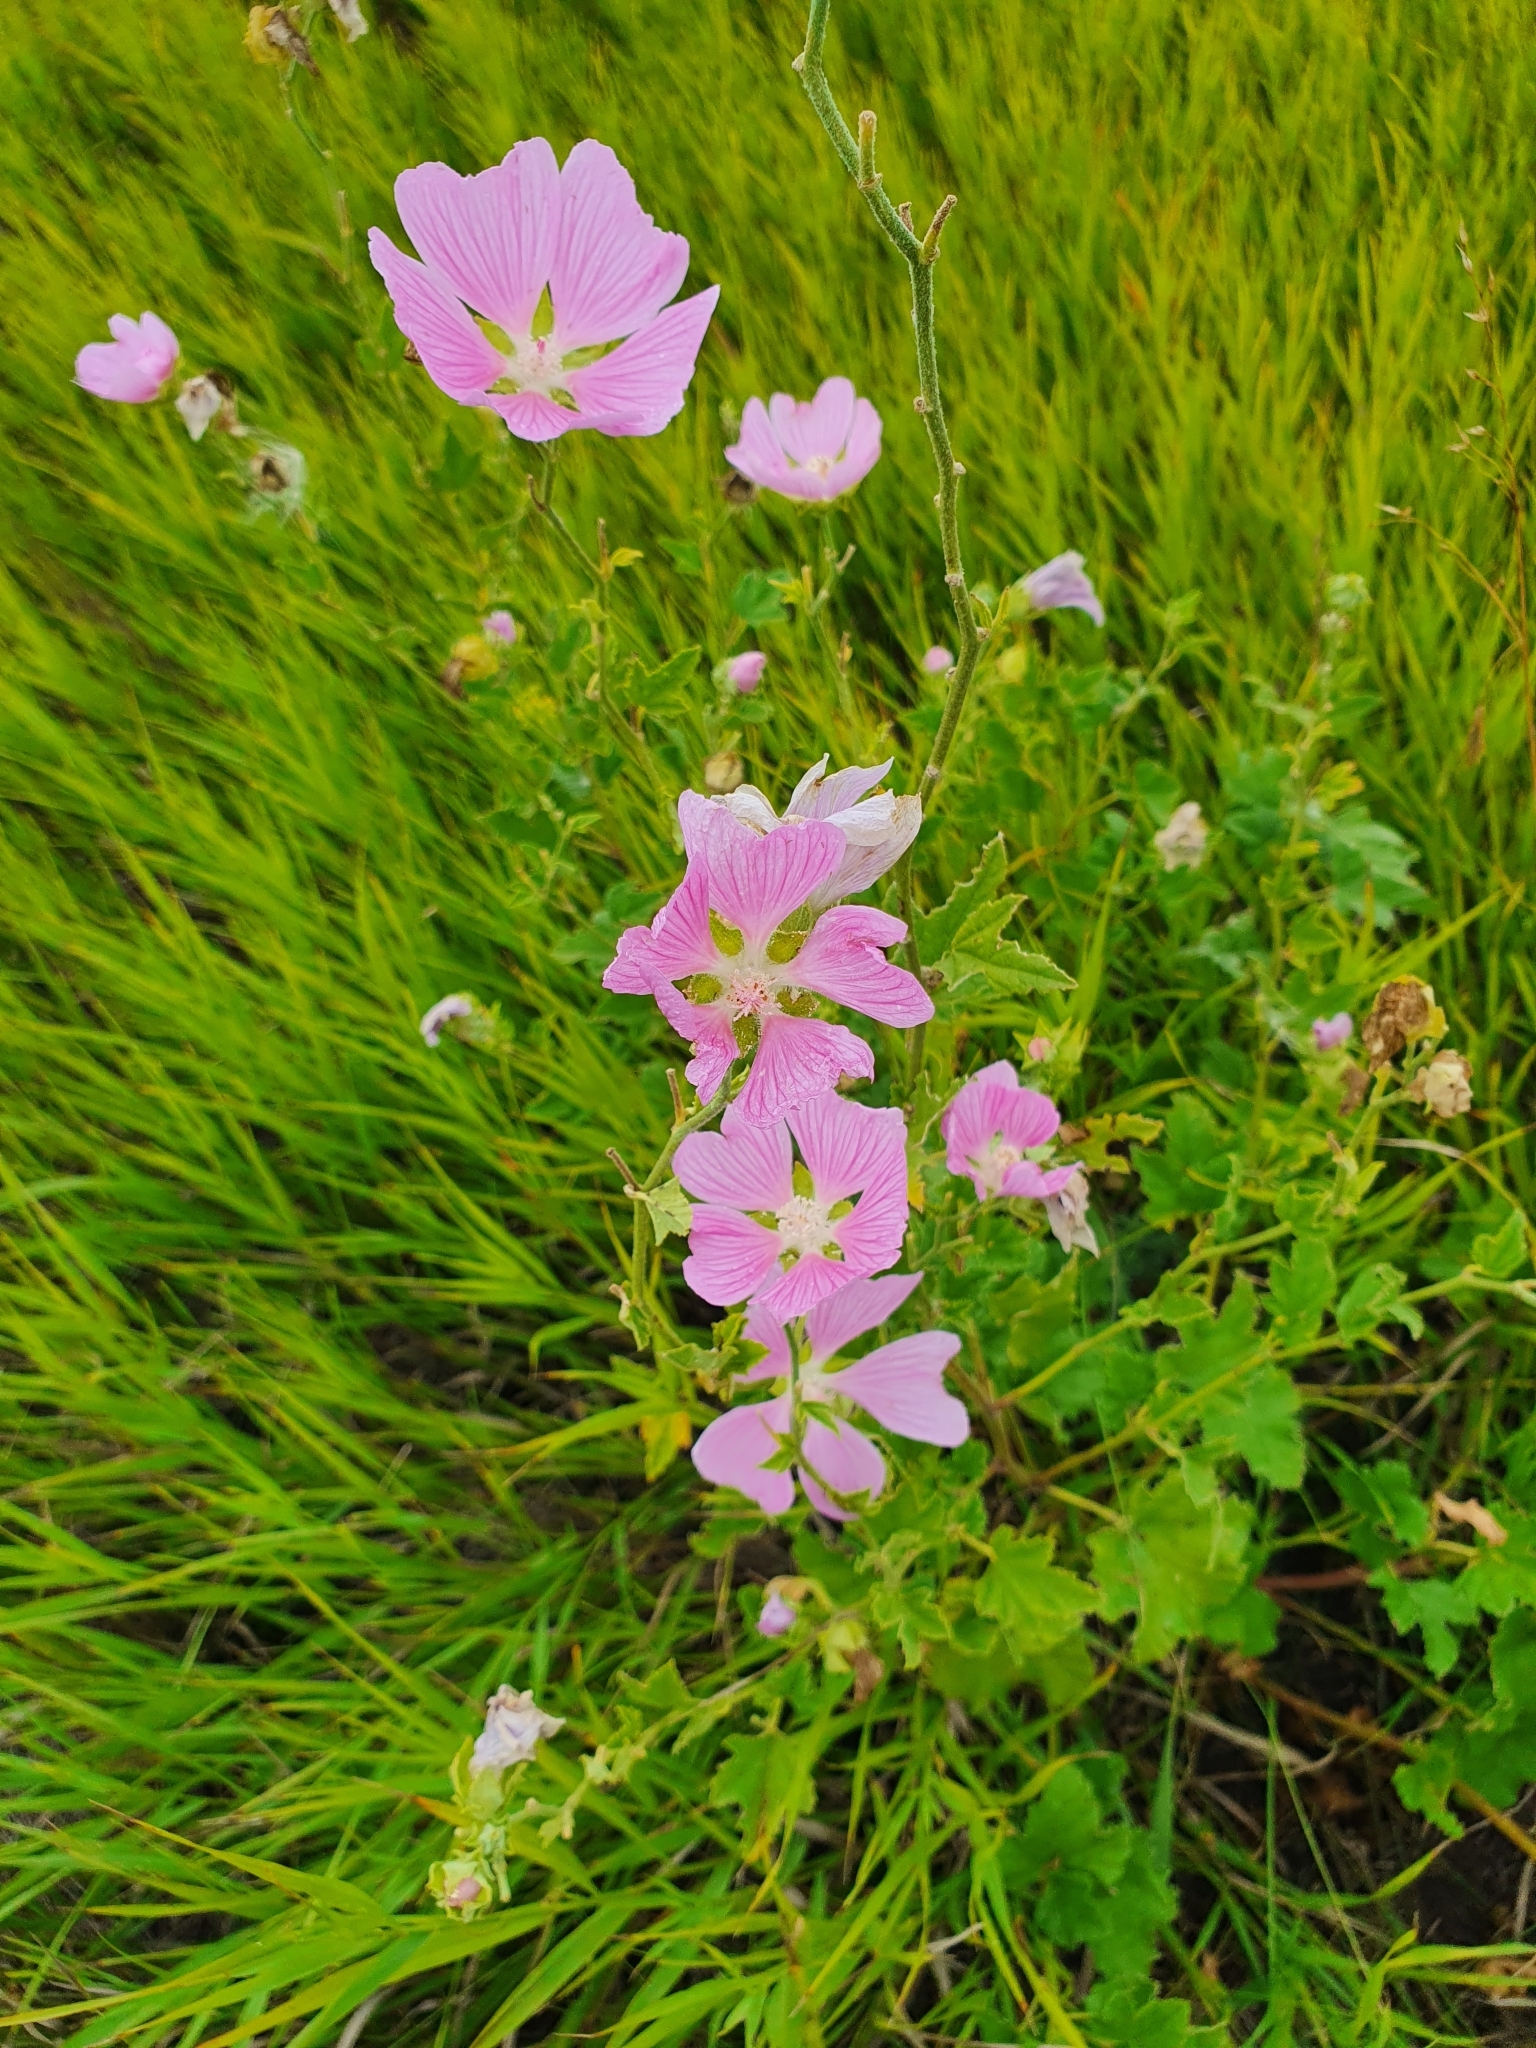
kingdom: Plantae
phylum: Tracheophyta
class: Magnoliopsida
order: Malvales
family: Malvaceae
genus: Malva
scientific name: Malva thuringiaca
